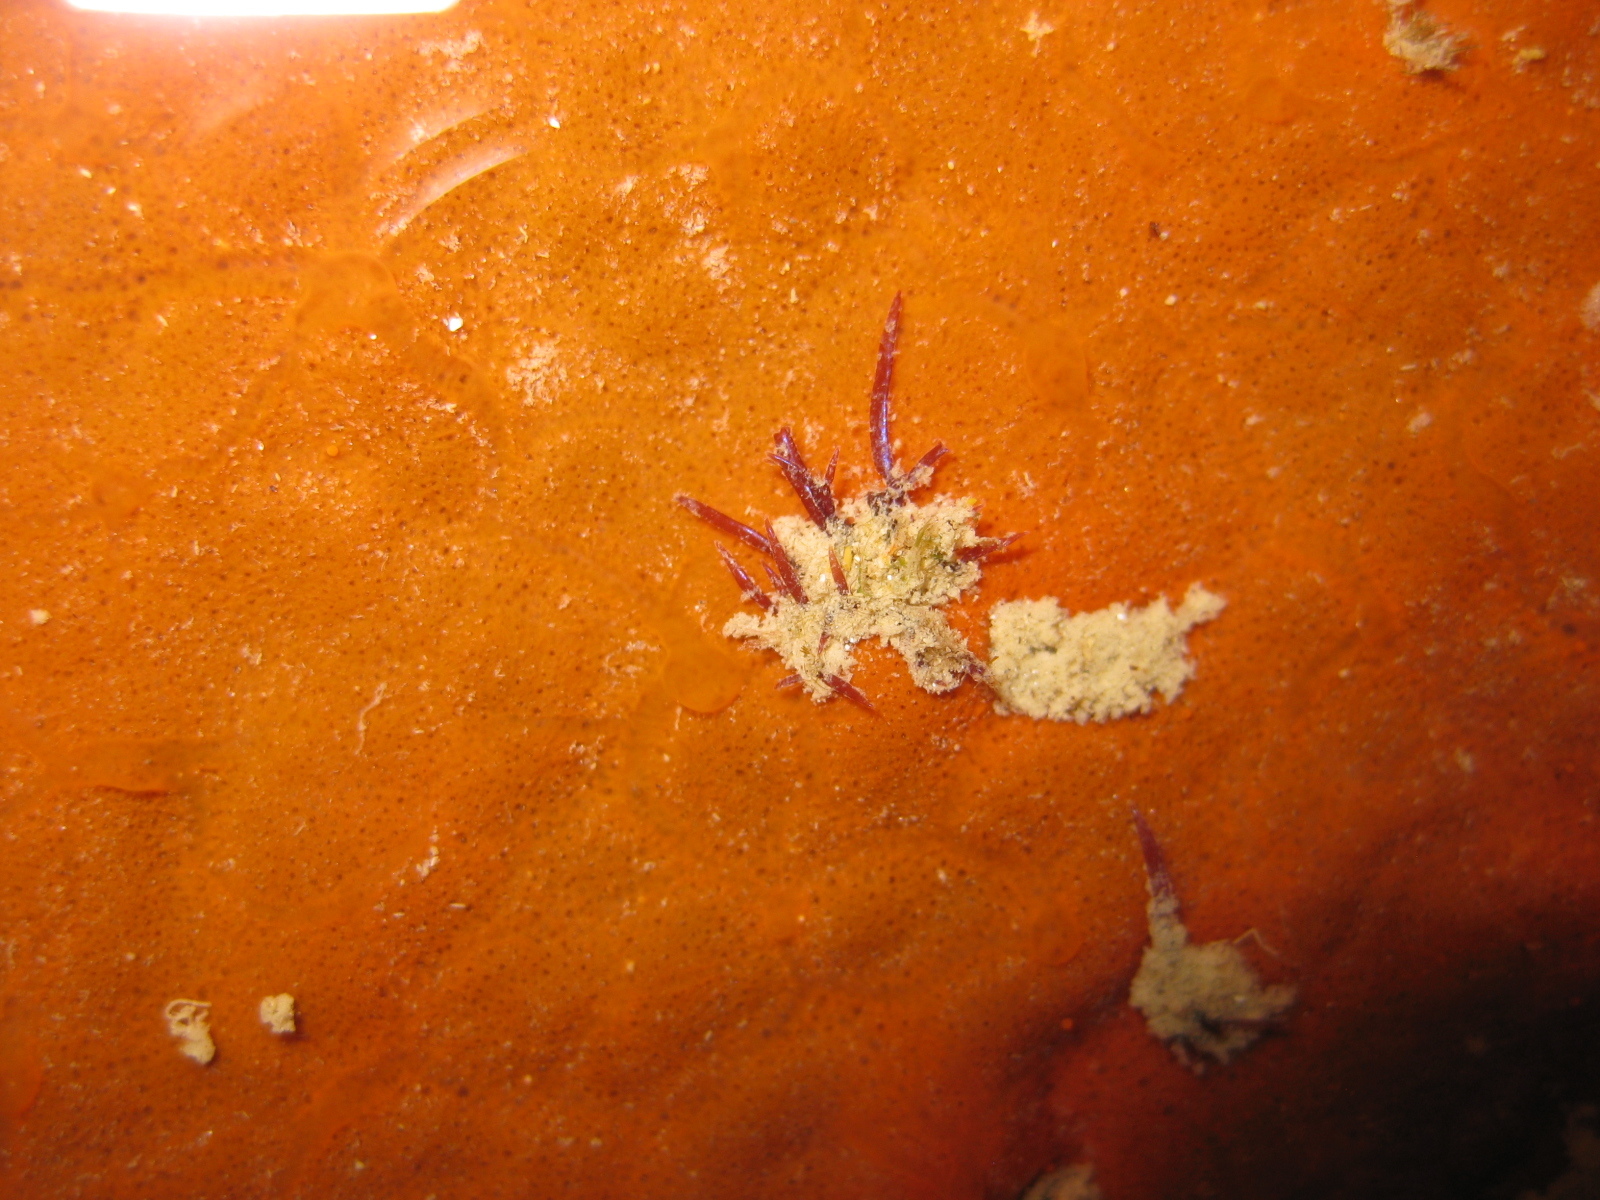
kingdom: Plantae
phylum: Rhodophyta
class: Florideophyceae
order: Rhodymeniales
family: Champiaceae
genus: Champia
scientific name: Champia laingii
